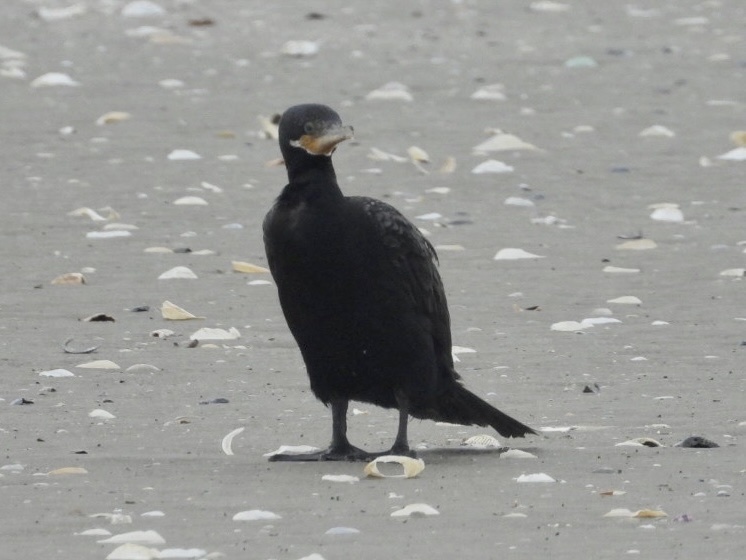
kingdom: Animalia
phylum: Chordata
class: Aves
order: Suliformes
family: Phalacrocoracidae
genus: Phalacrocorax
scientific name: Phalacrocorax auritus
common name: Double-crested cormorant
